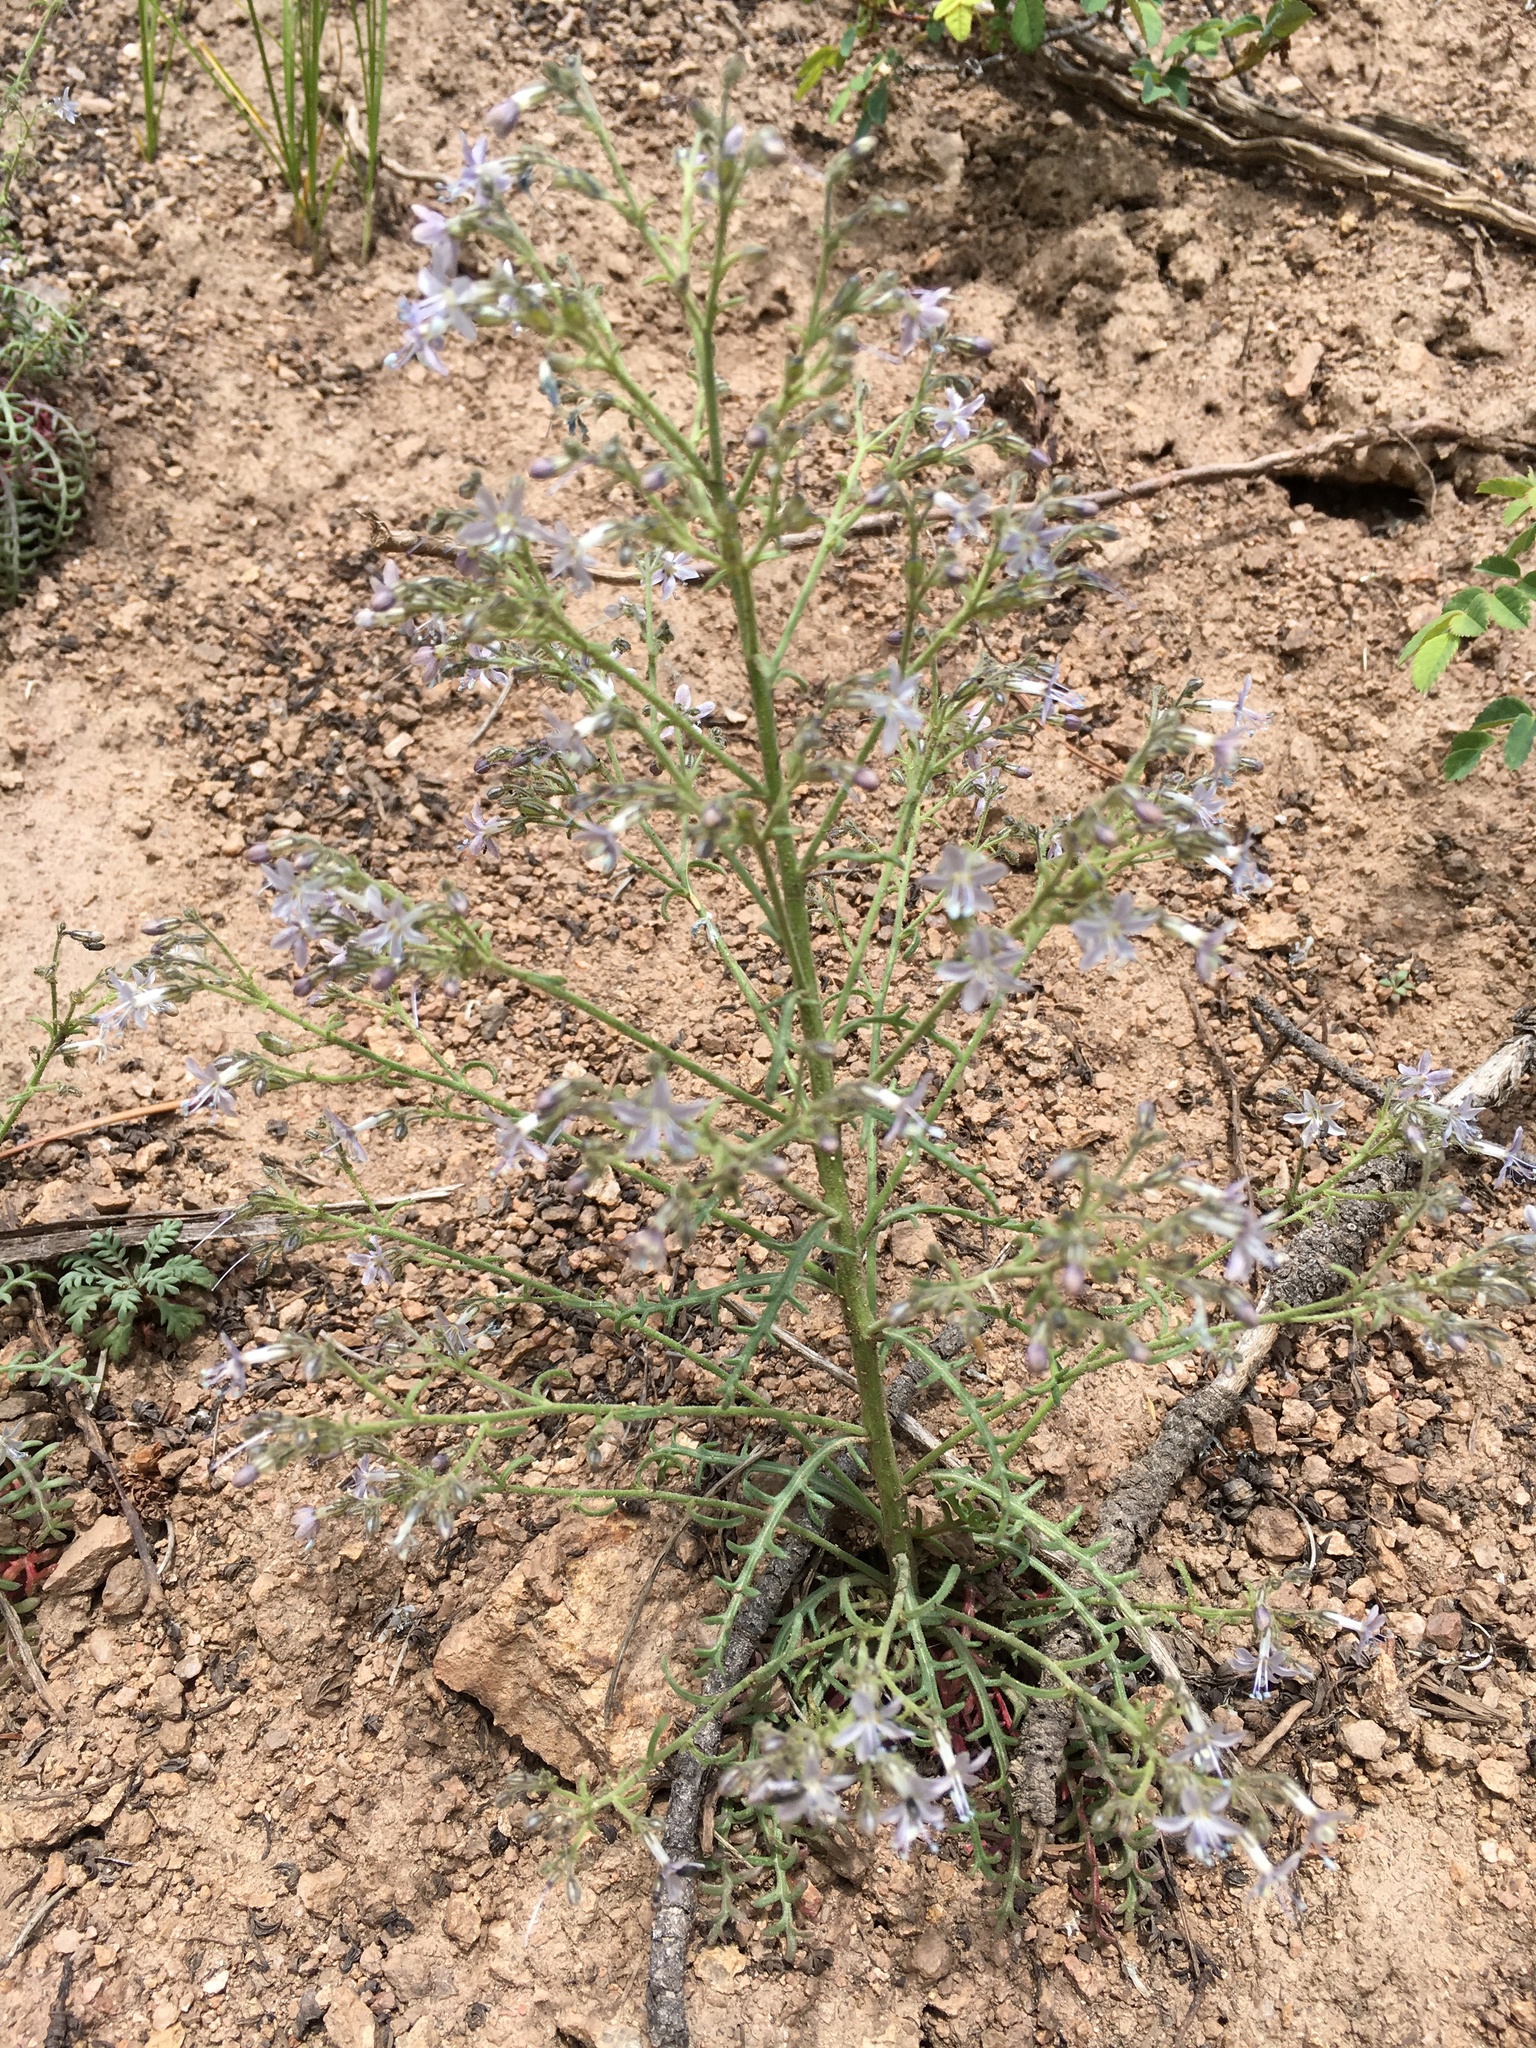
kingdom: Plantae
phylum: Tracheophyta
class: Magnoliopsida
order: Ericales
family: Polemoniaceae
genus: Aliciella
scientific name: Aliciella pinnatifida
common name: Sticky gilia
